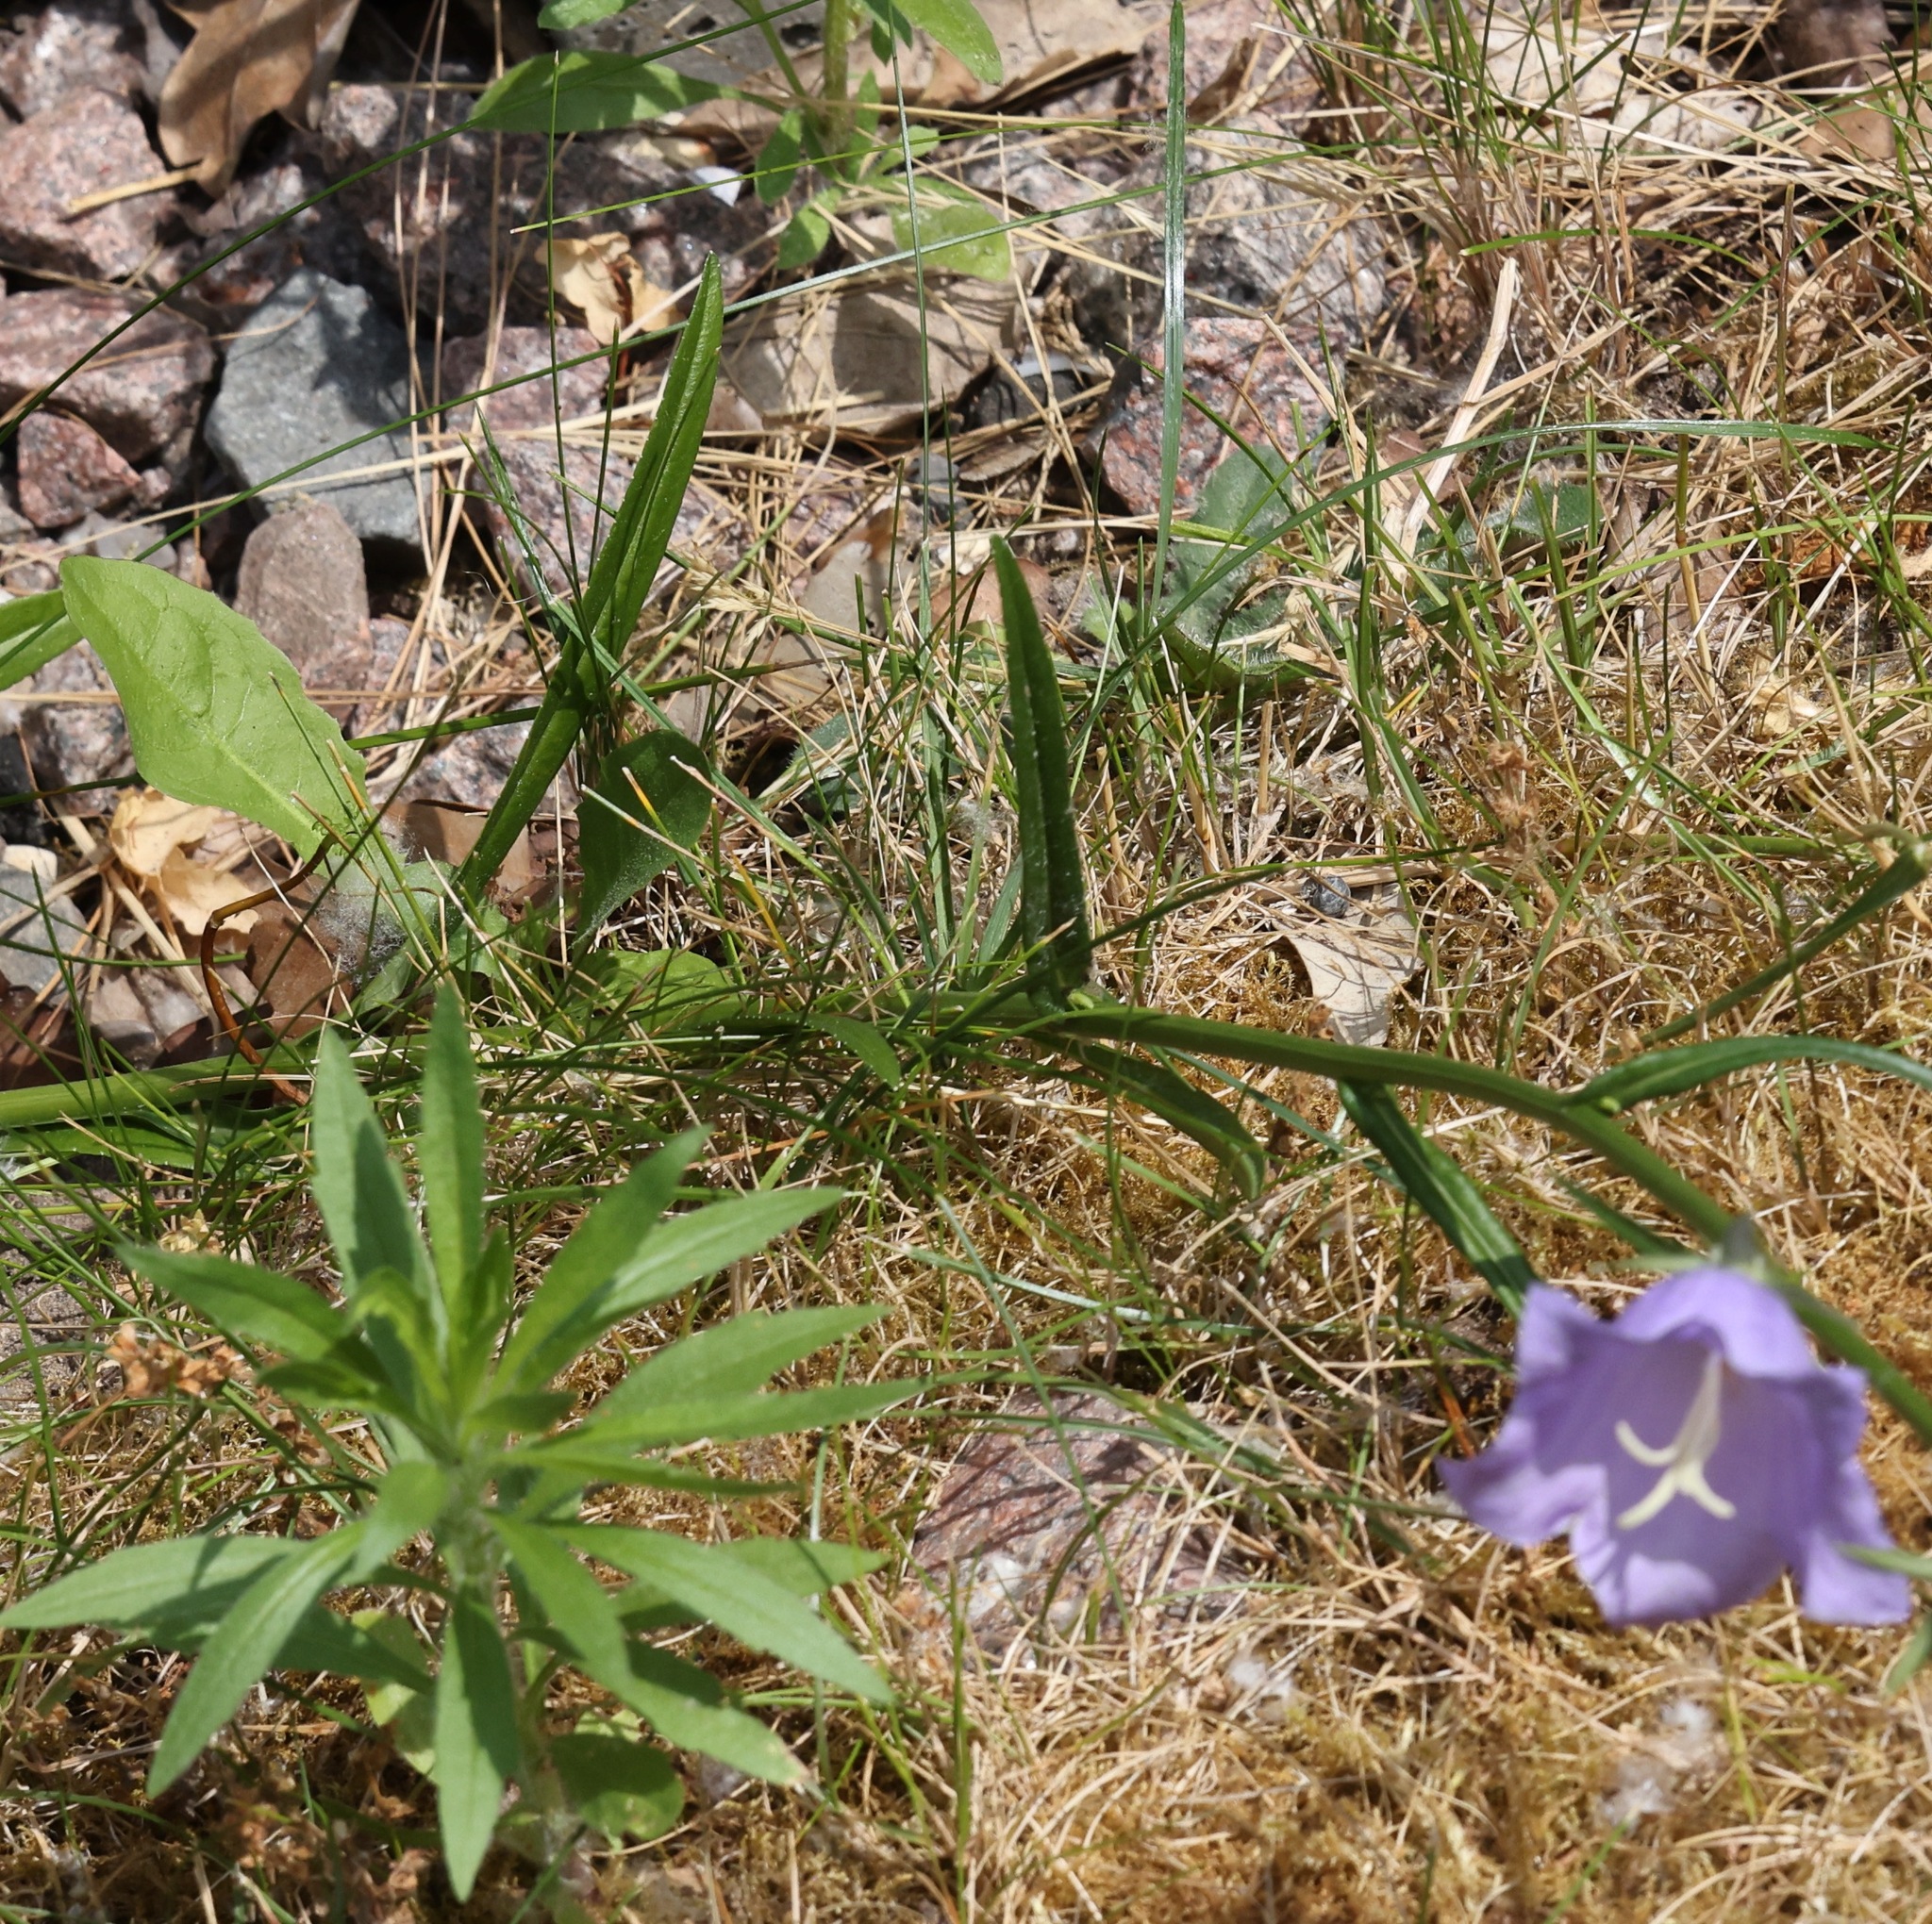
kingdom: Plantae
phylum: Tracheophyta
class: Magnoliopsida
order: Asterales
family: Campanulaceae
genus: Campanula
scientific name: Campanula persicifolia
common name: Peach-leaved bellflower
